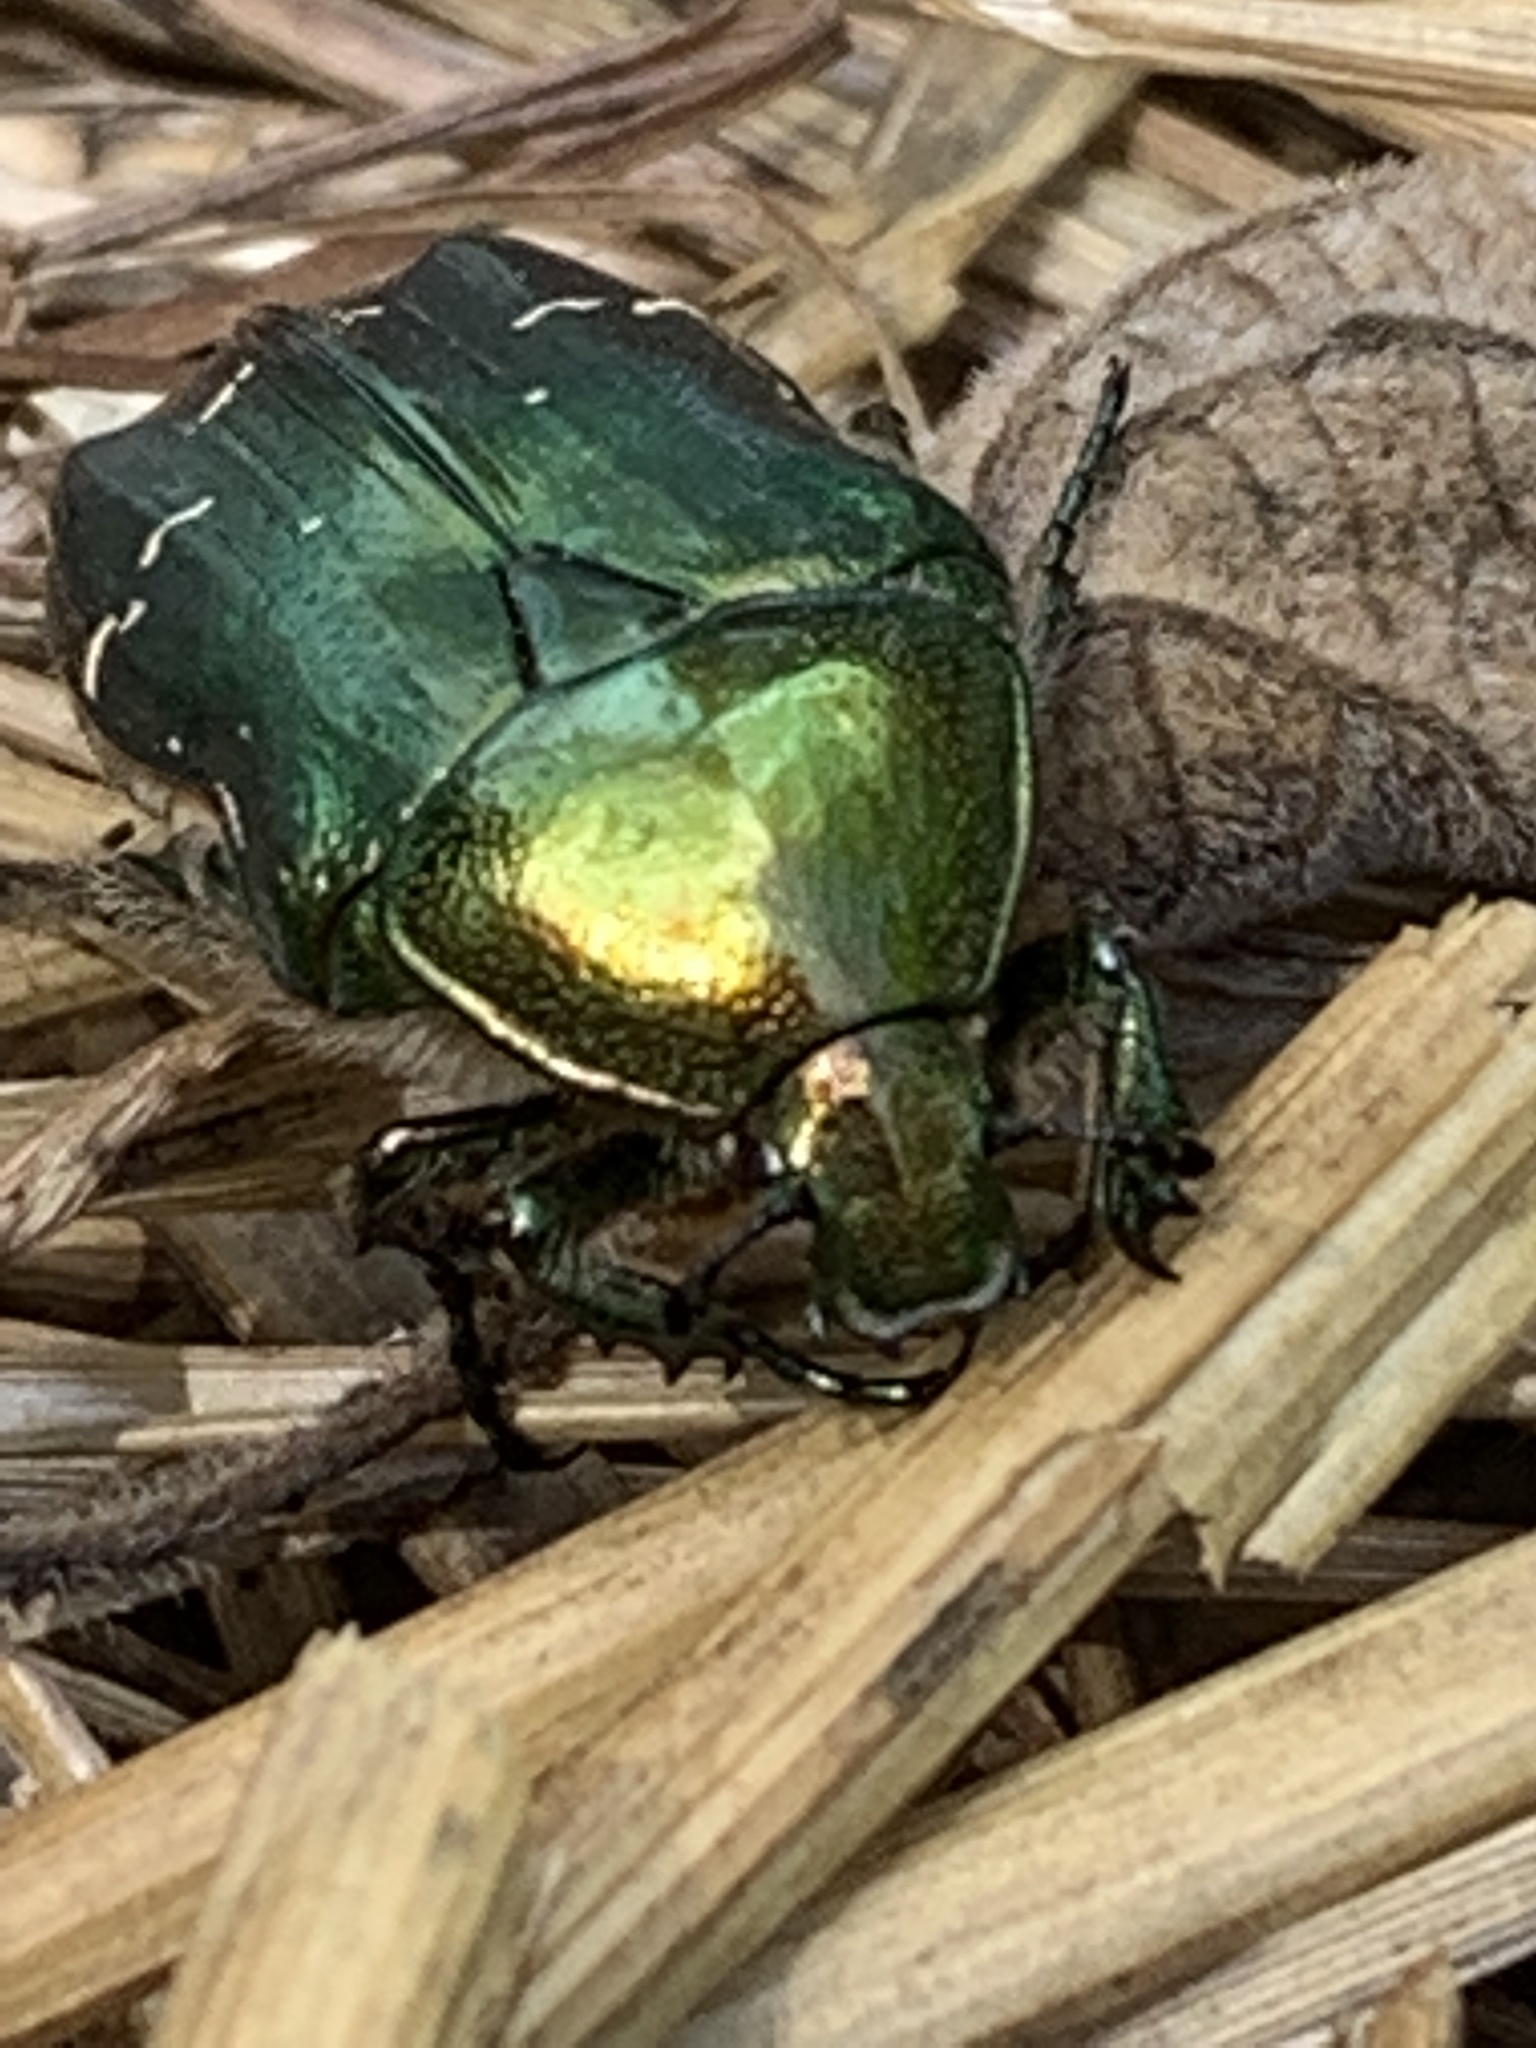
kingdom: Animalia
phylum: Arthropoda
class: Insecta
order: Coleoptera
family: Scarabaeidae
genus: Cetonia
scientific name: Cetonia aurata
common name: Rose chafer
